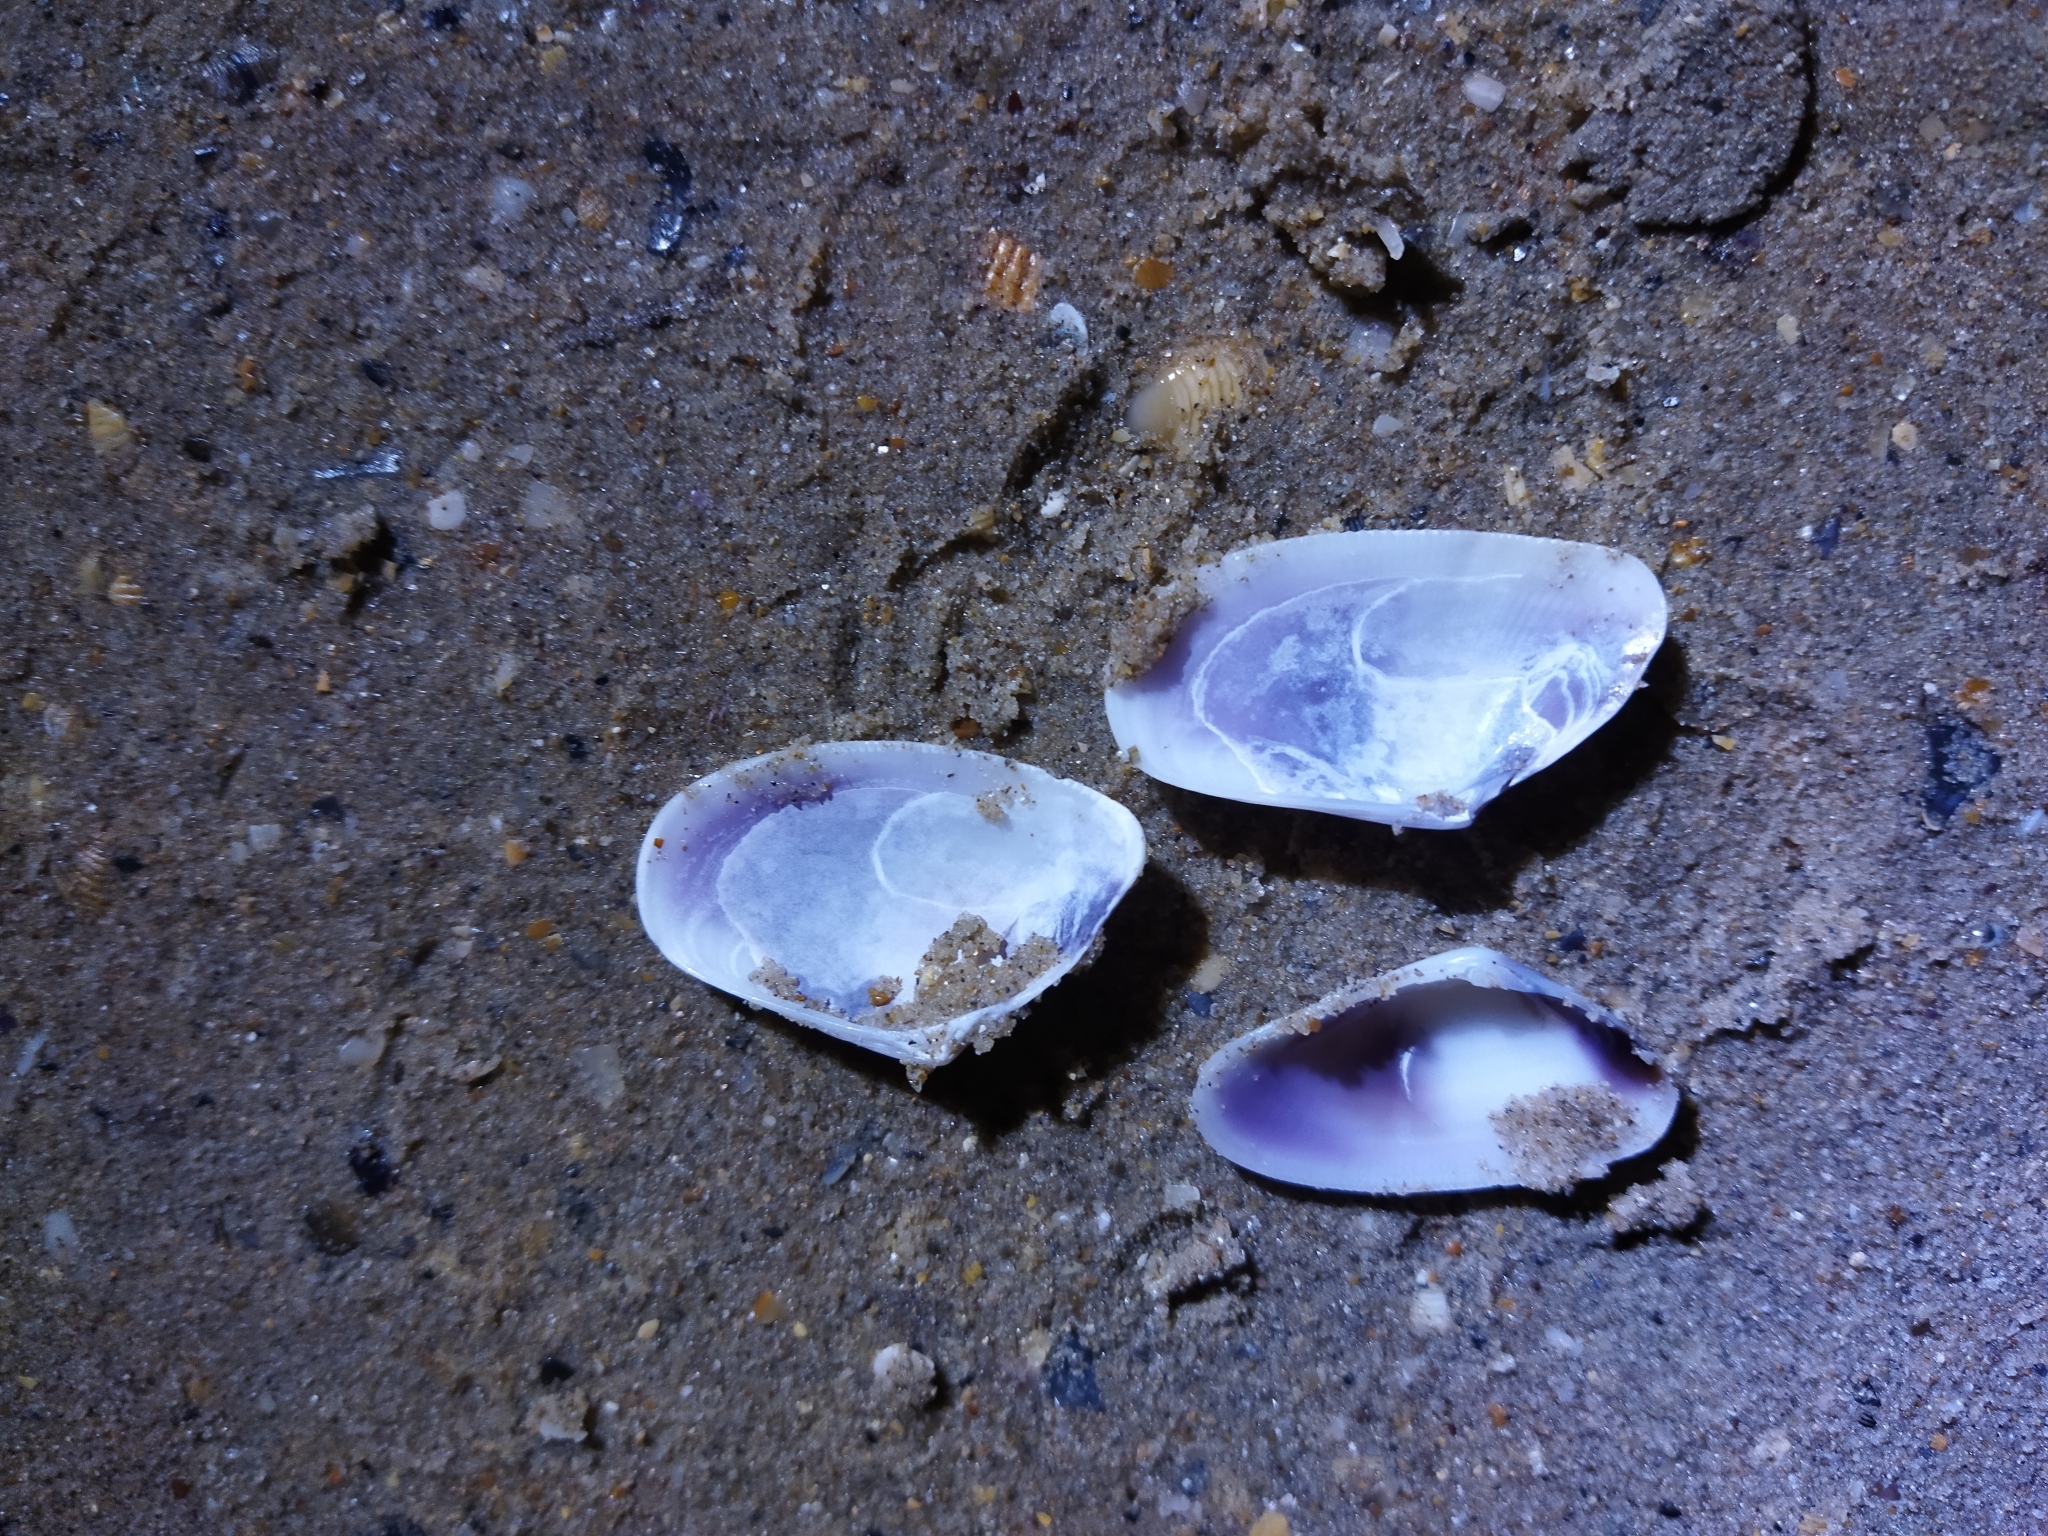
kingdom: Animalia
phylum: Mollusca
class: Bivalvia
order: Cardiida
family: Donacidae
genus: Donax
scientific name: Donax trunculus
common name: Truncate donax
